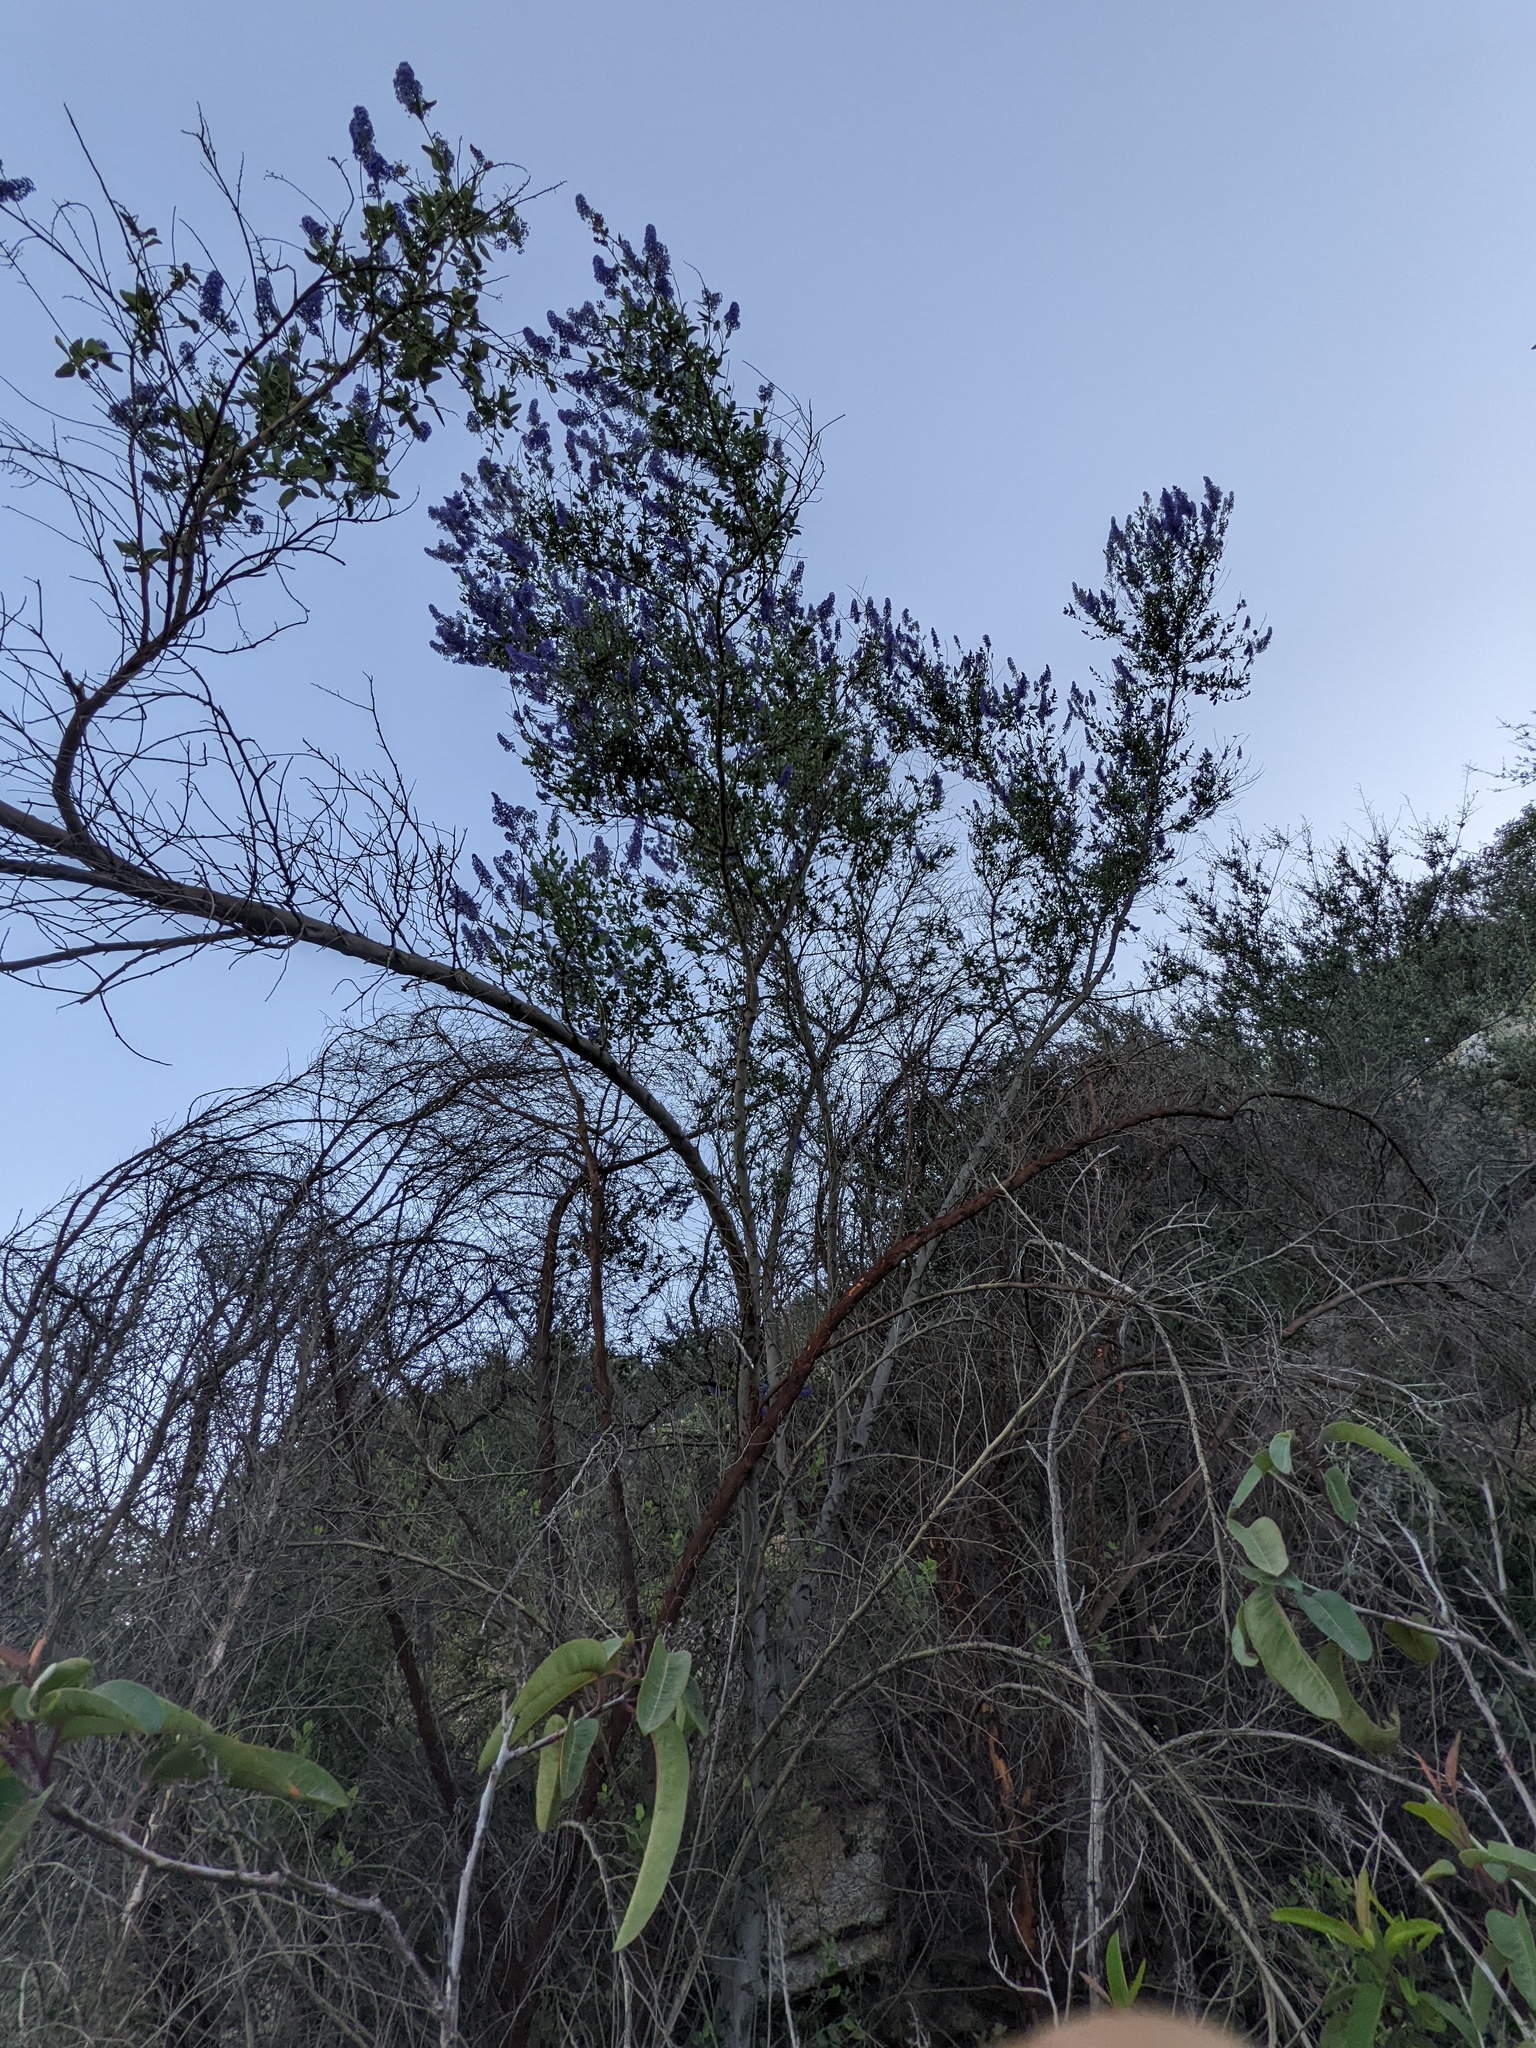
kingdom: Plantae
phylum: Tracheophyta
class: Magnoliopsida
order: Rosales
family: Rhamnaceae
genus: Ceanothus
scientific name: Ceanothus cyaneus
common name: Lakeside ceanothus
